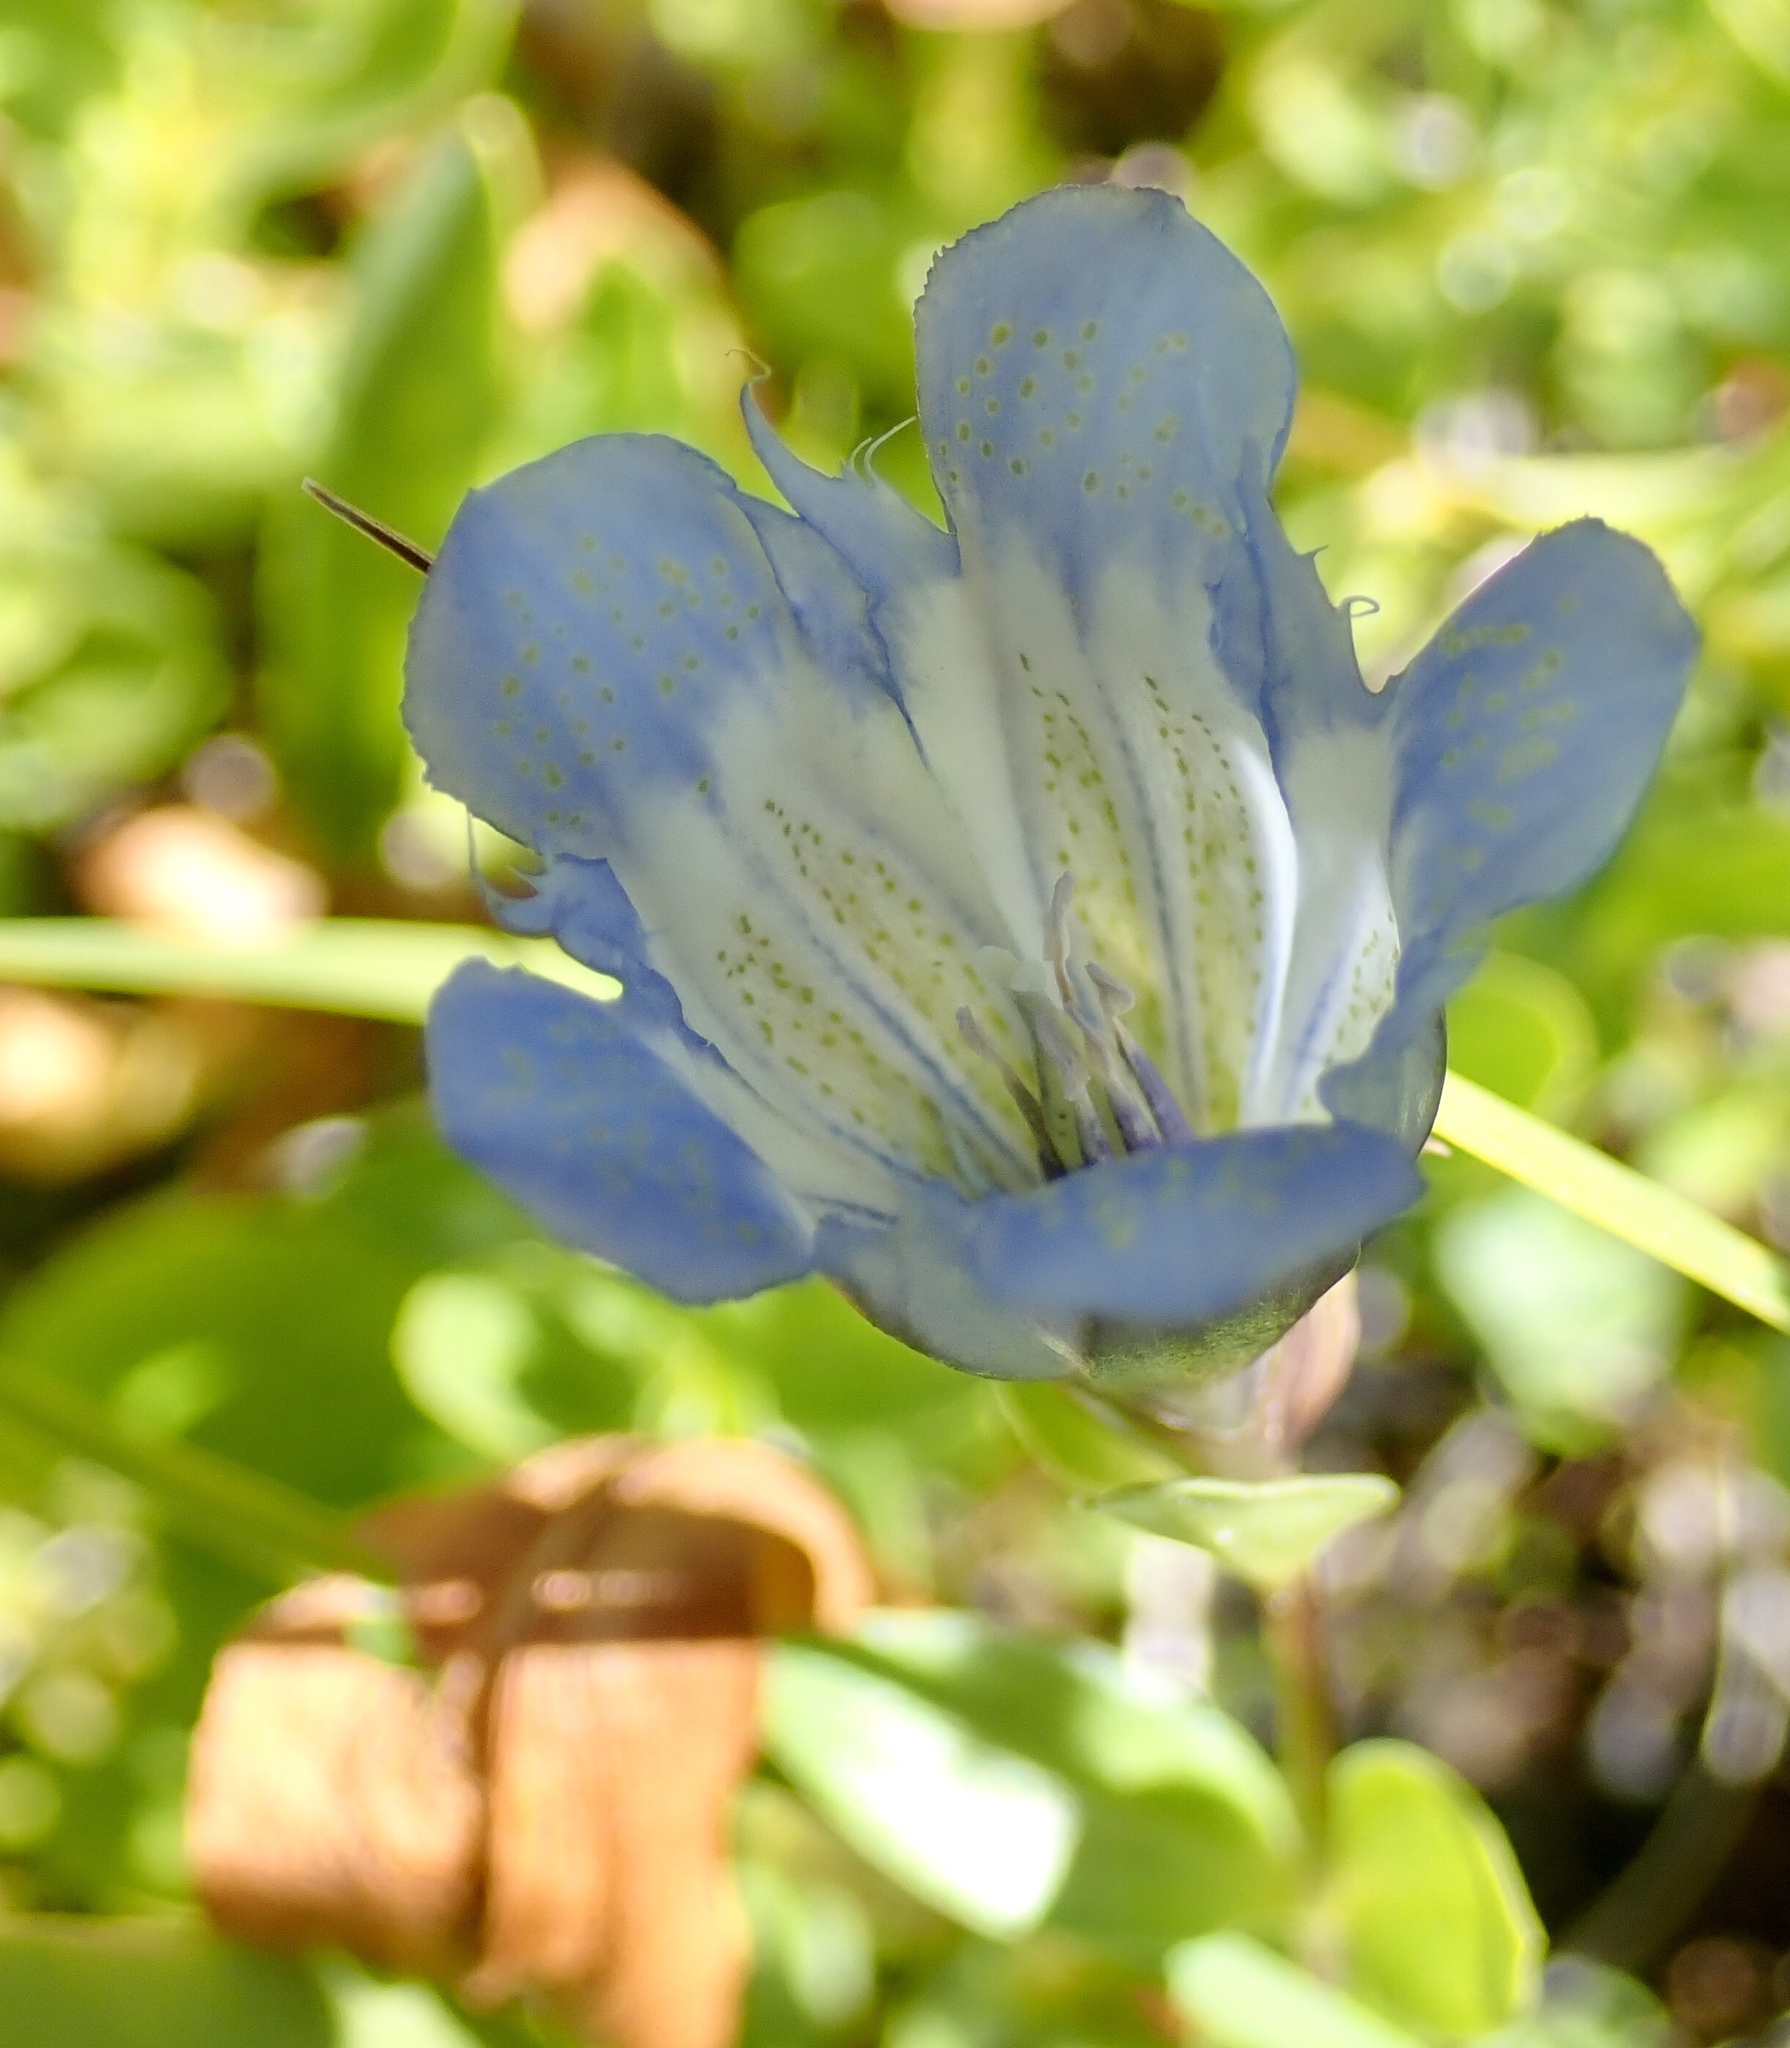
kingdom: Plantae
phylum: Tracheophyta
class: Magnoliopsida
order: Gentianales
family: Gentianaceae
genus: Gentiana
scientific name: Gentiana calycosa
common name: Rainier pleated gentian
